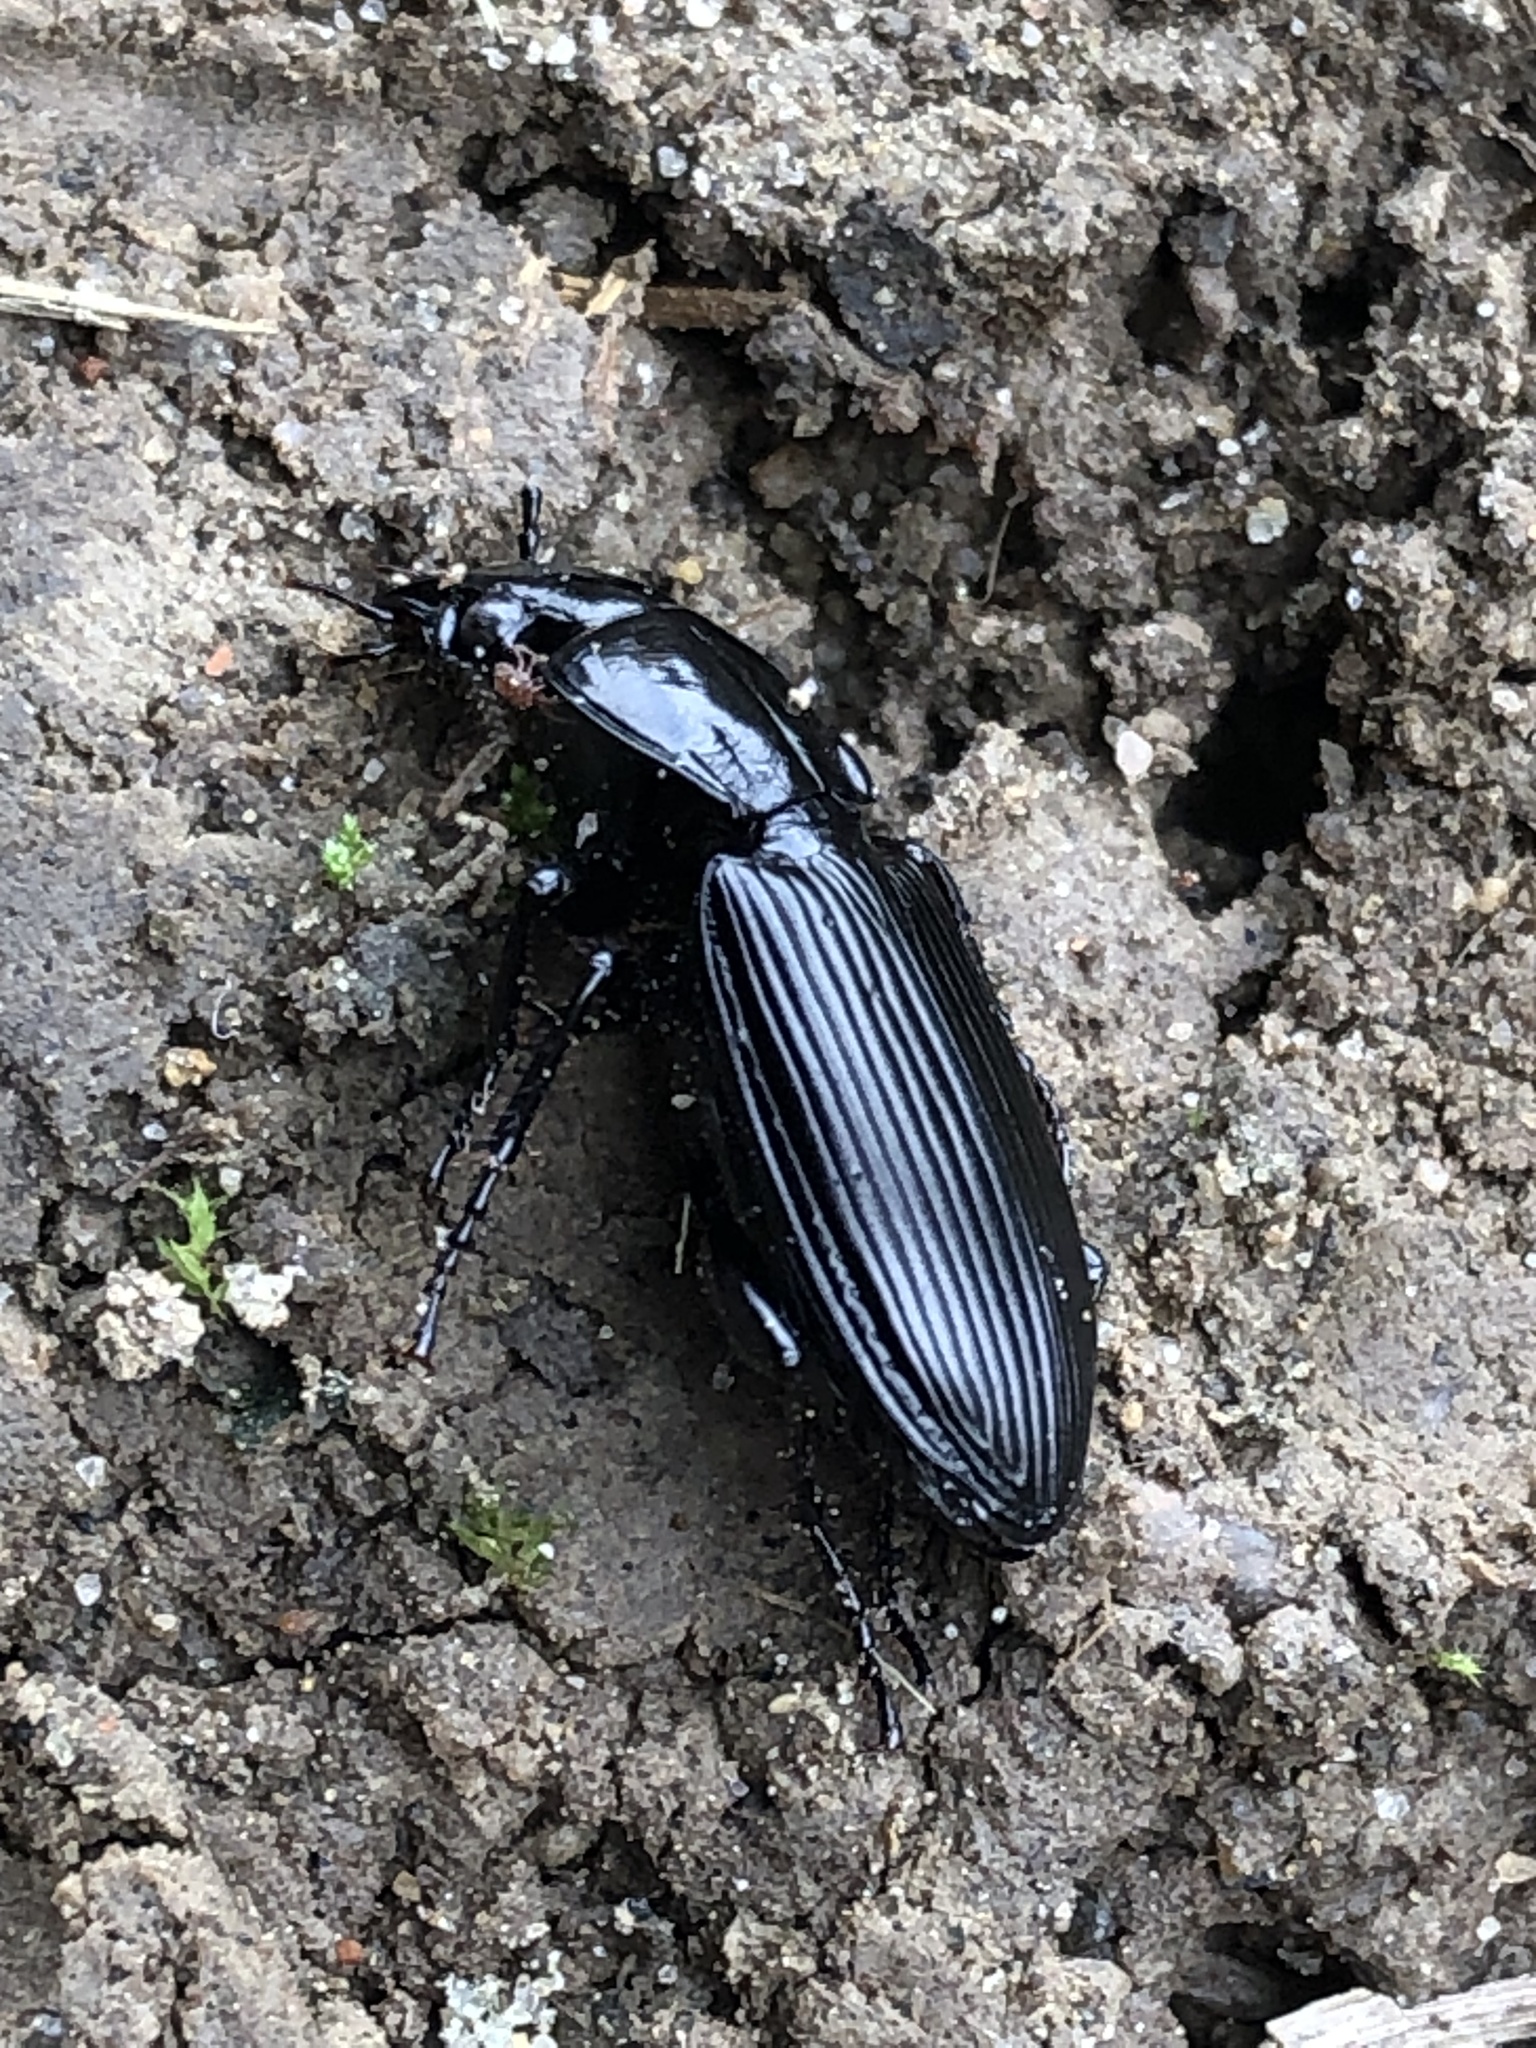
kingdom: Animalia
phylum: Arthropoda
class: Insecta
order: Coleoptera
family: Carabidae
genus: Pterostichus
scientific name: Pterostichus melanarius
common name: European dark harp ground beetle
